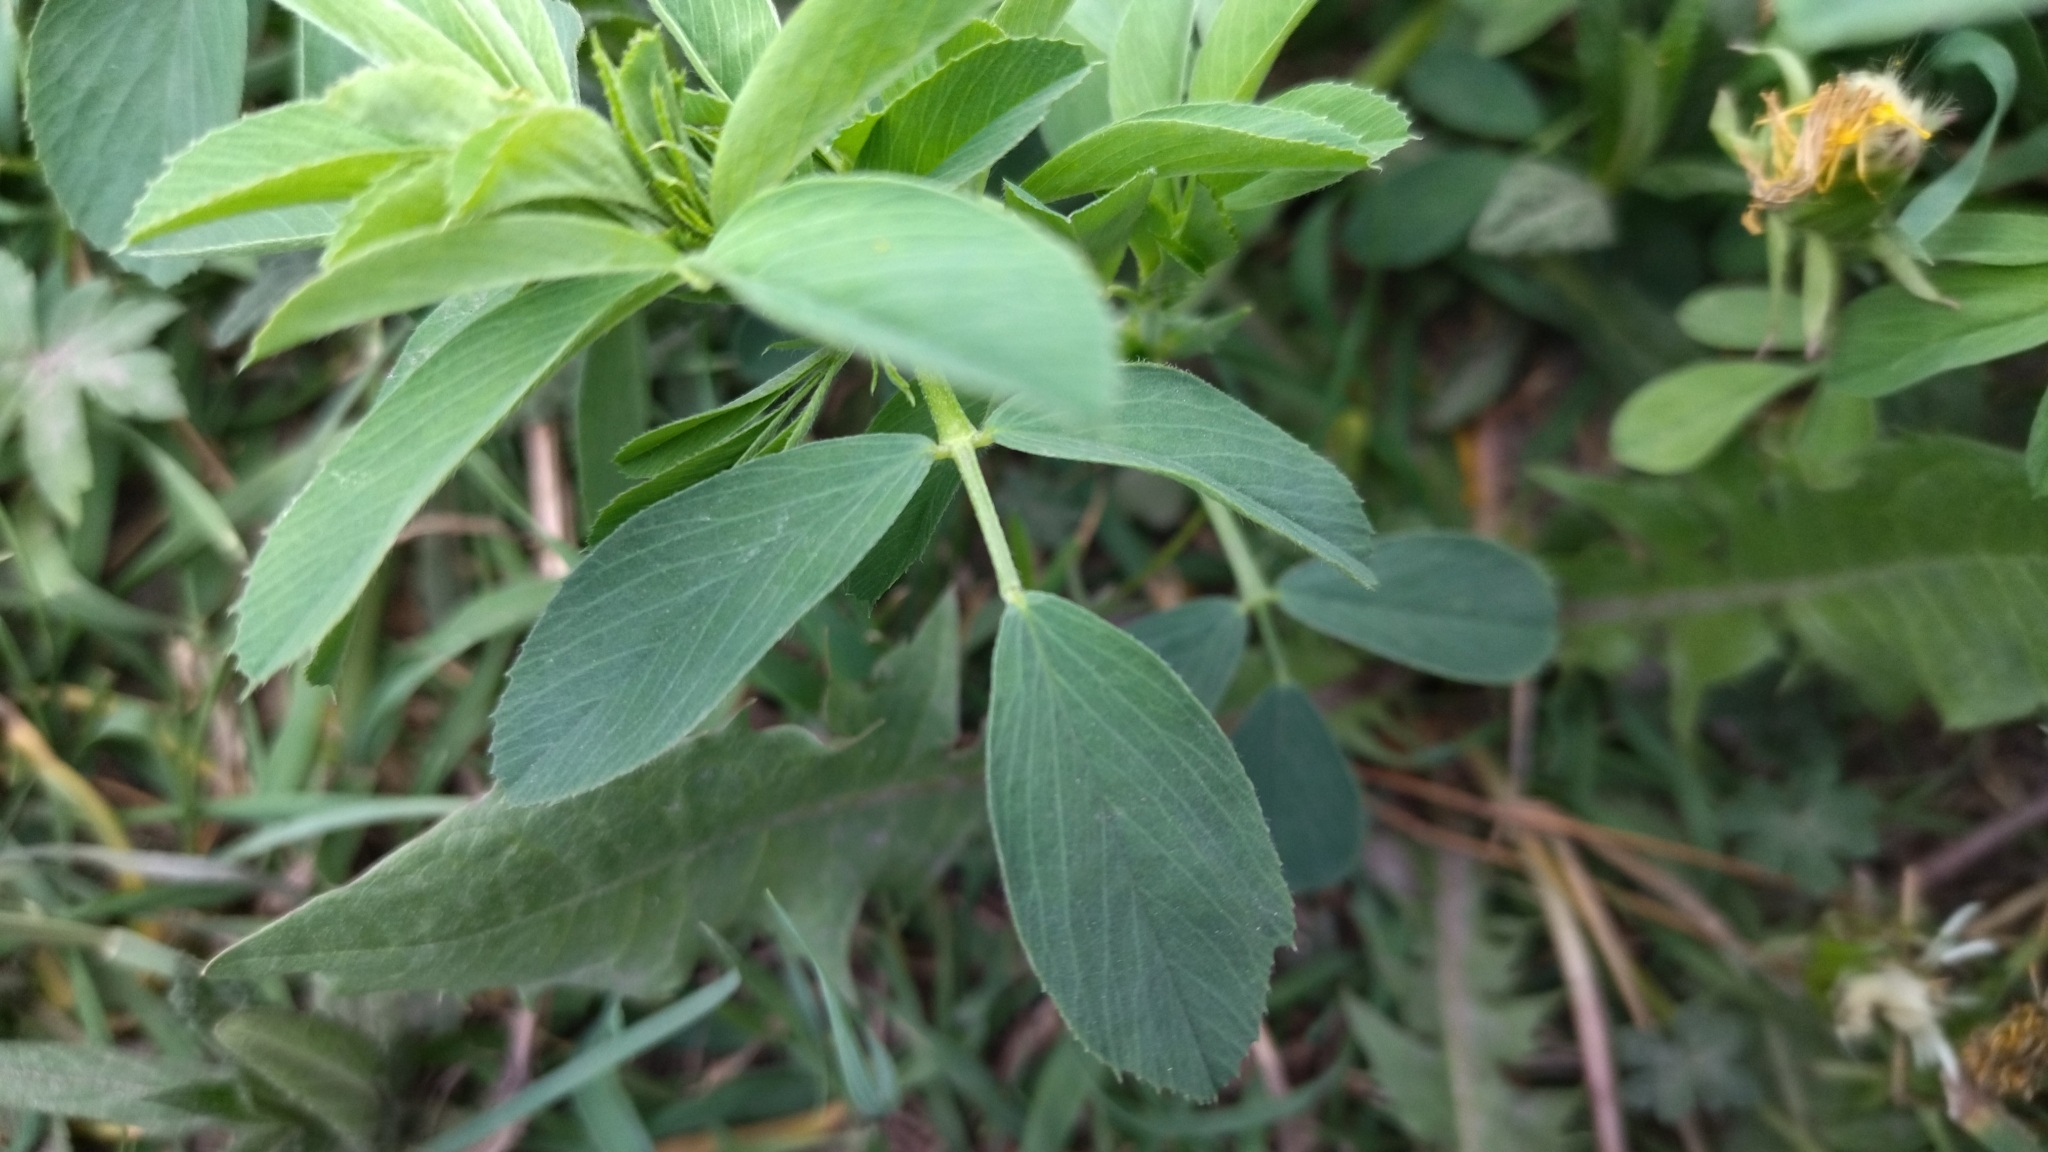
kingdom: Plantae
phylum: Tracheophyta
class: Magnoliopsida
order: Fabales
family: Fabaceae
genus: Medicago
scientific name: Medicago sativa
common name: Alfalfa
